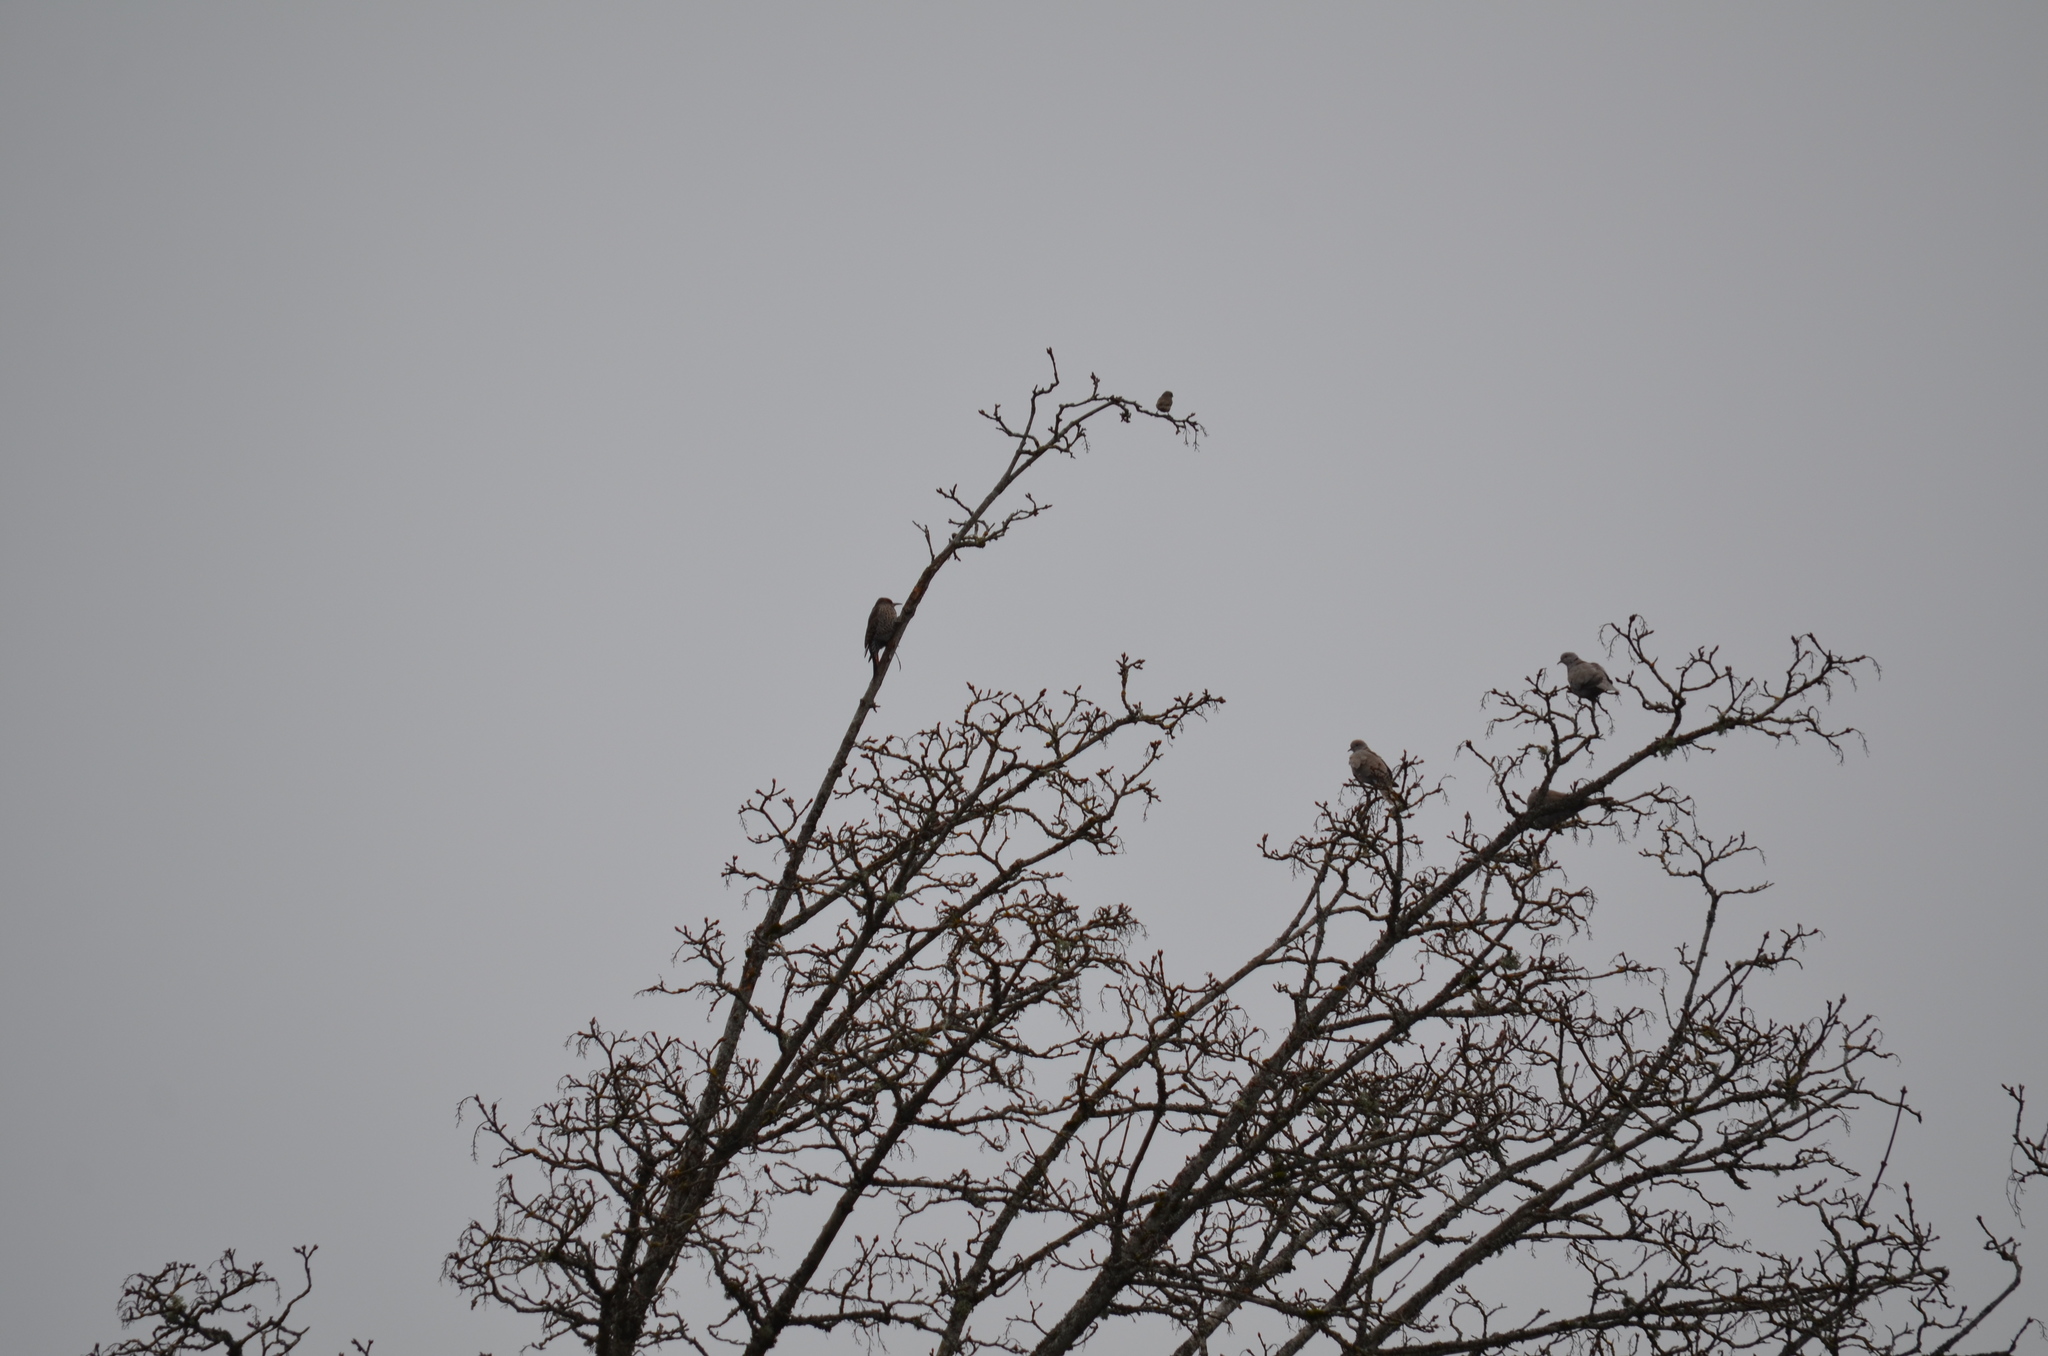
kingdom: Animalia
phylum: Chordata
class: Aves
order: Piciformes
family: Picidae
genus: Colaptes
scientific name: Colaptes auratus
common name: Northern flicker
